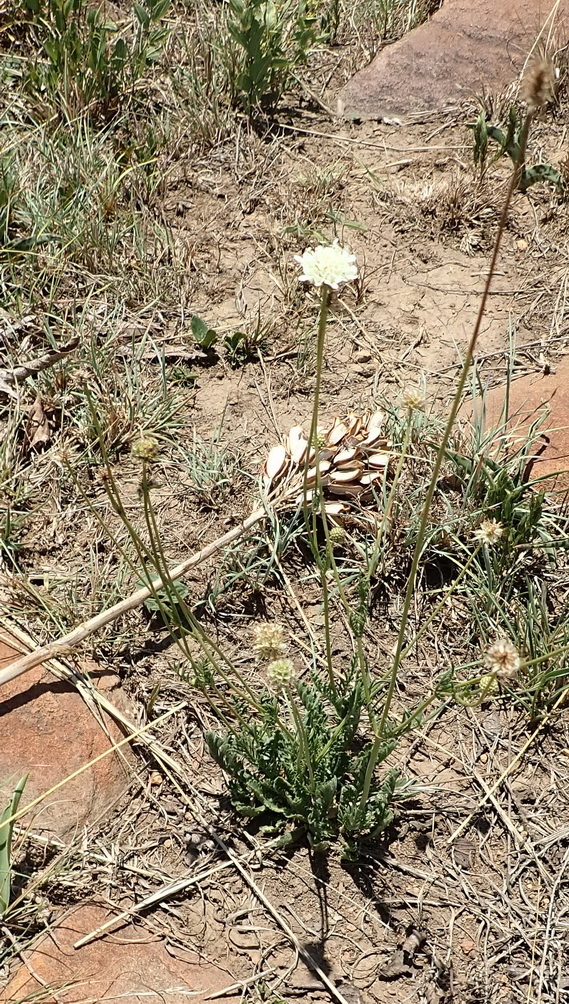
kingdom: Plantae
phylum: Tracheophyta
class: Magnoliopsida
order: Dipsacales
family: Caprifoliaceae
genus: Scabiosa
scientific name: Scabiosa columbaria
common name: Small scabious
